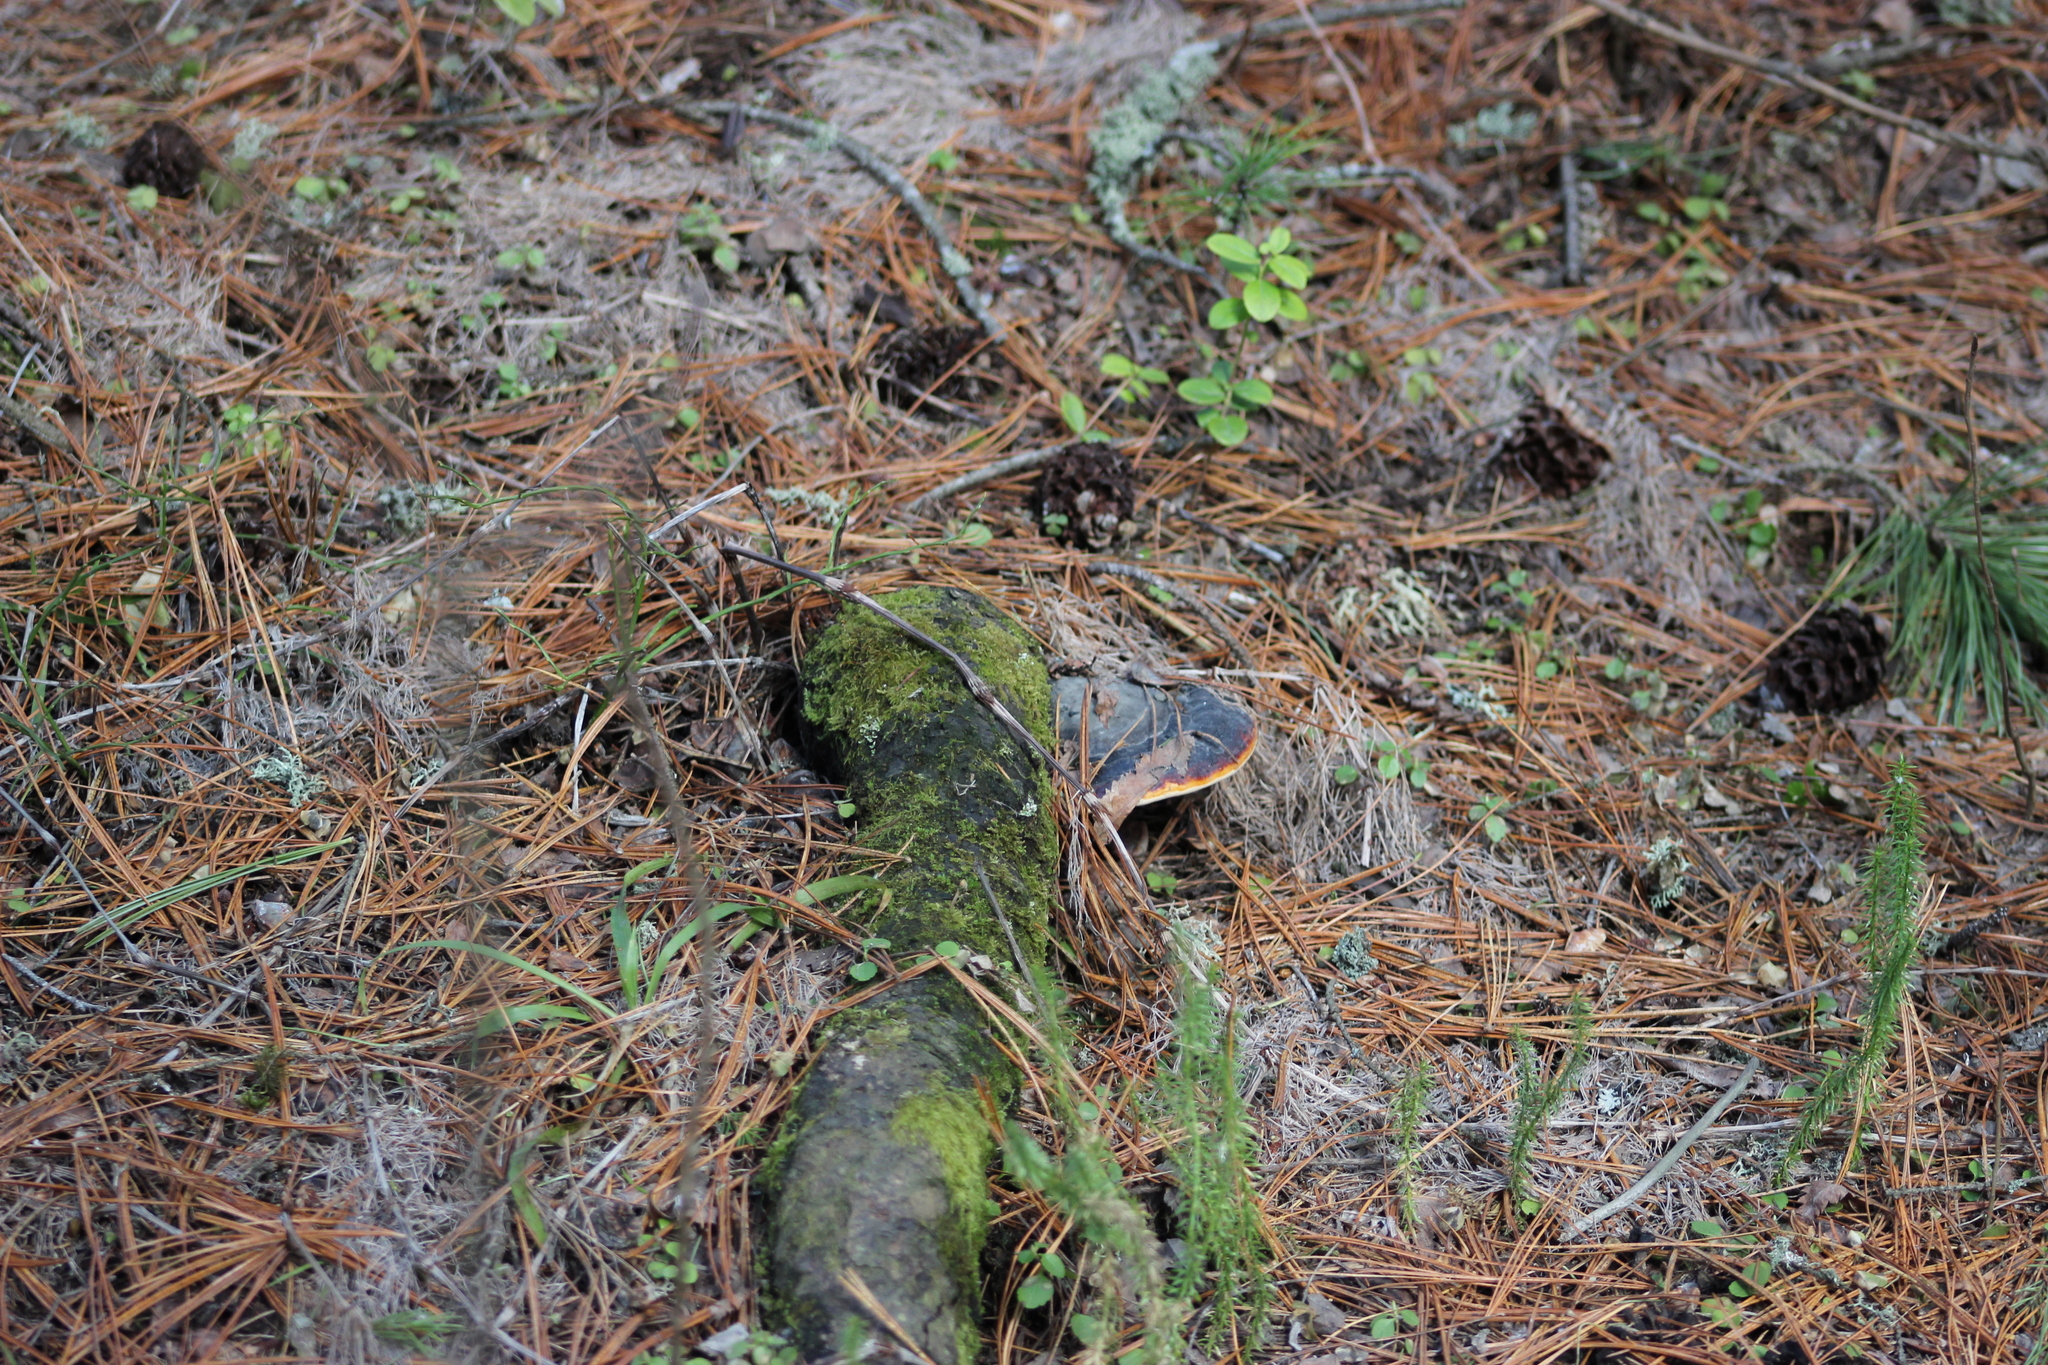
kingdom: Fungi
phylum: Basidiomycota
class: Agaricomycetes
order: Polyporales
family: Fomitopsidaceae
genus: Fomitopsis
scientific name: Fomitopsis pinicola
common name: Red-belted bracket
